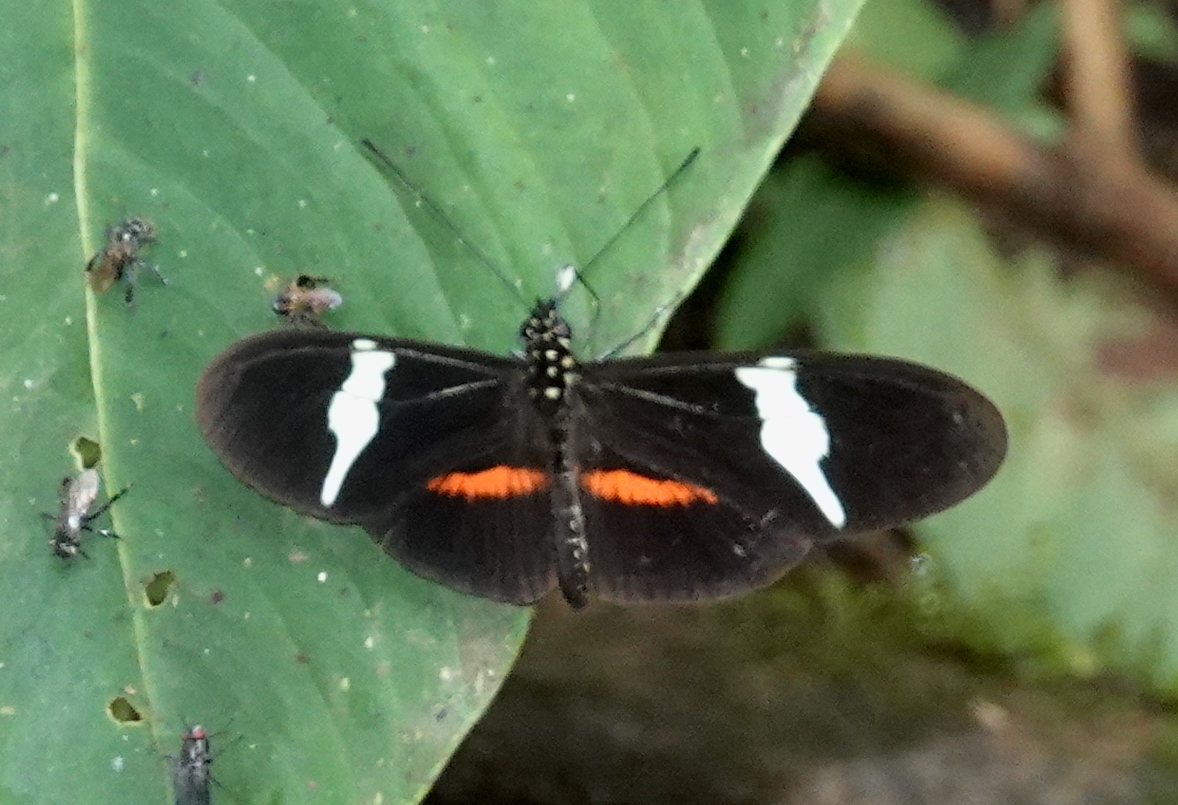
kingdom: Animalia
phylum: Arthropoda
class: Insecta
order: Lepidoptera
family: Nymphalidae
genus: Heliconius
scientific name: Heliconius clysonymus
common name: Clysonymus longwing
